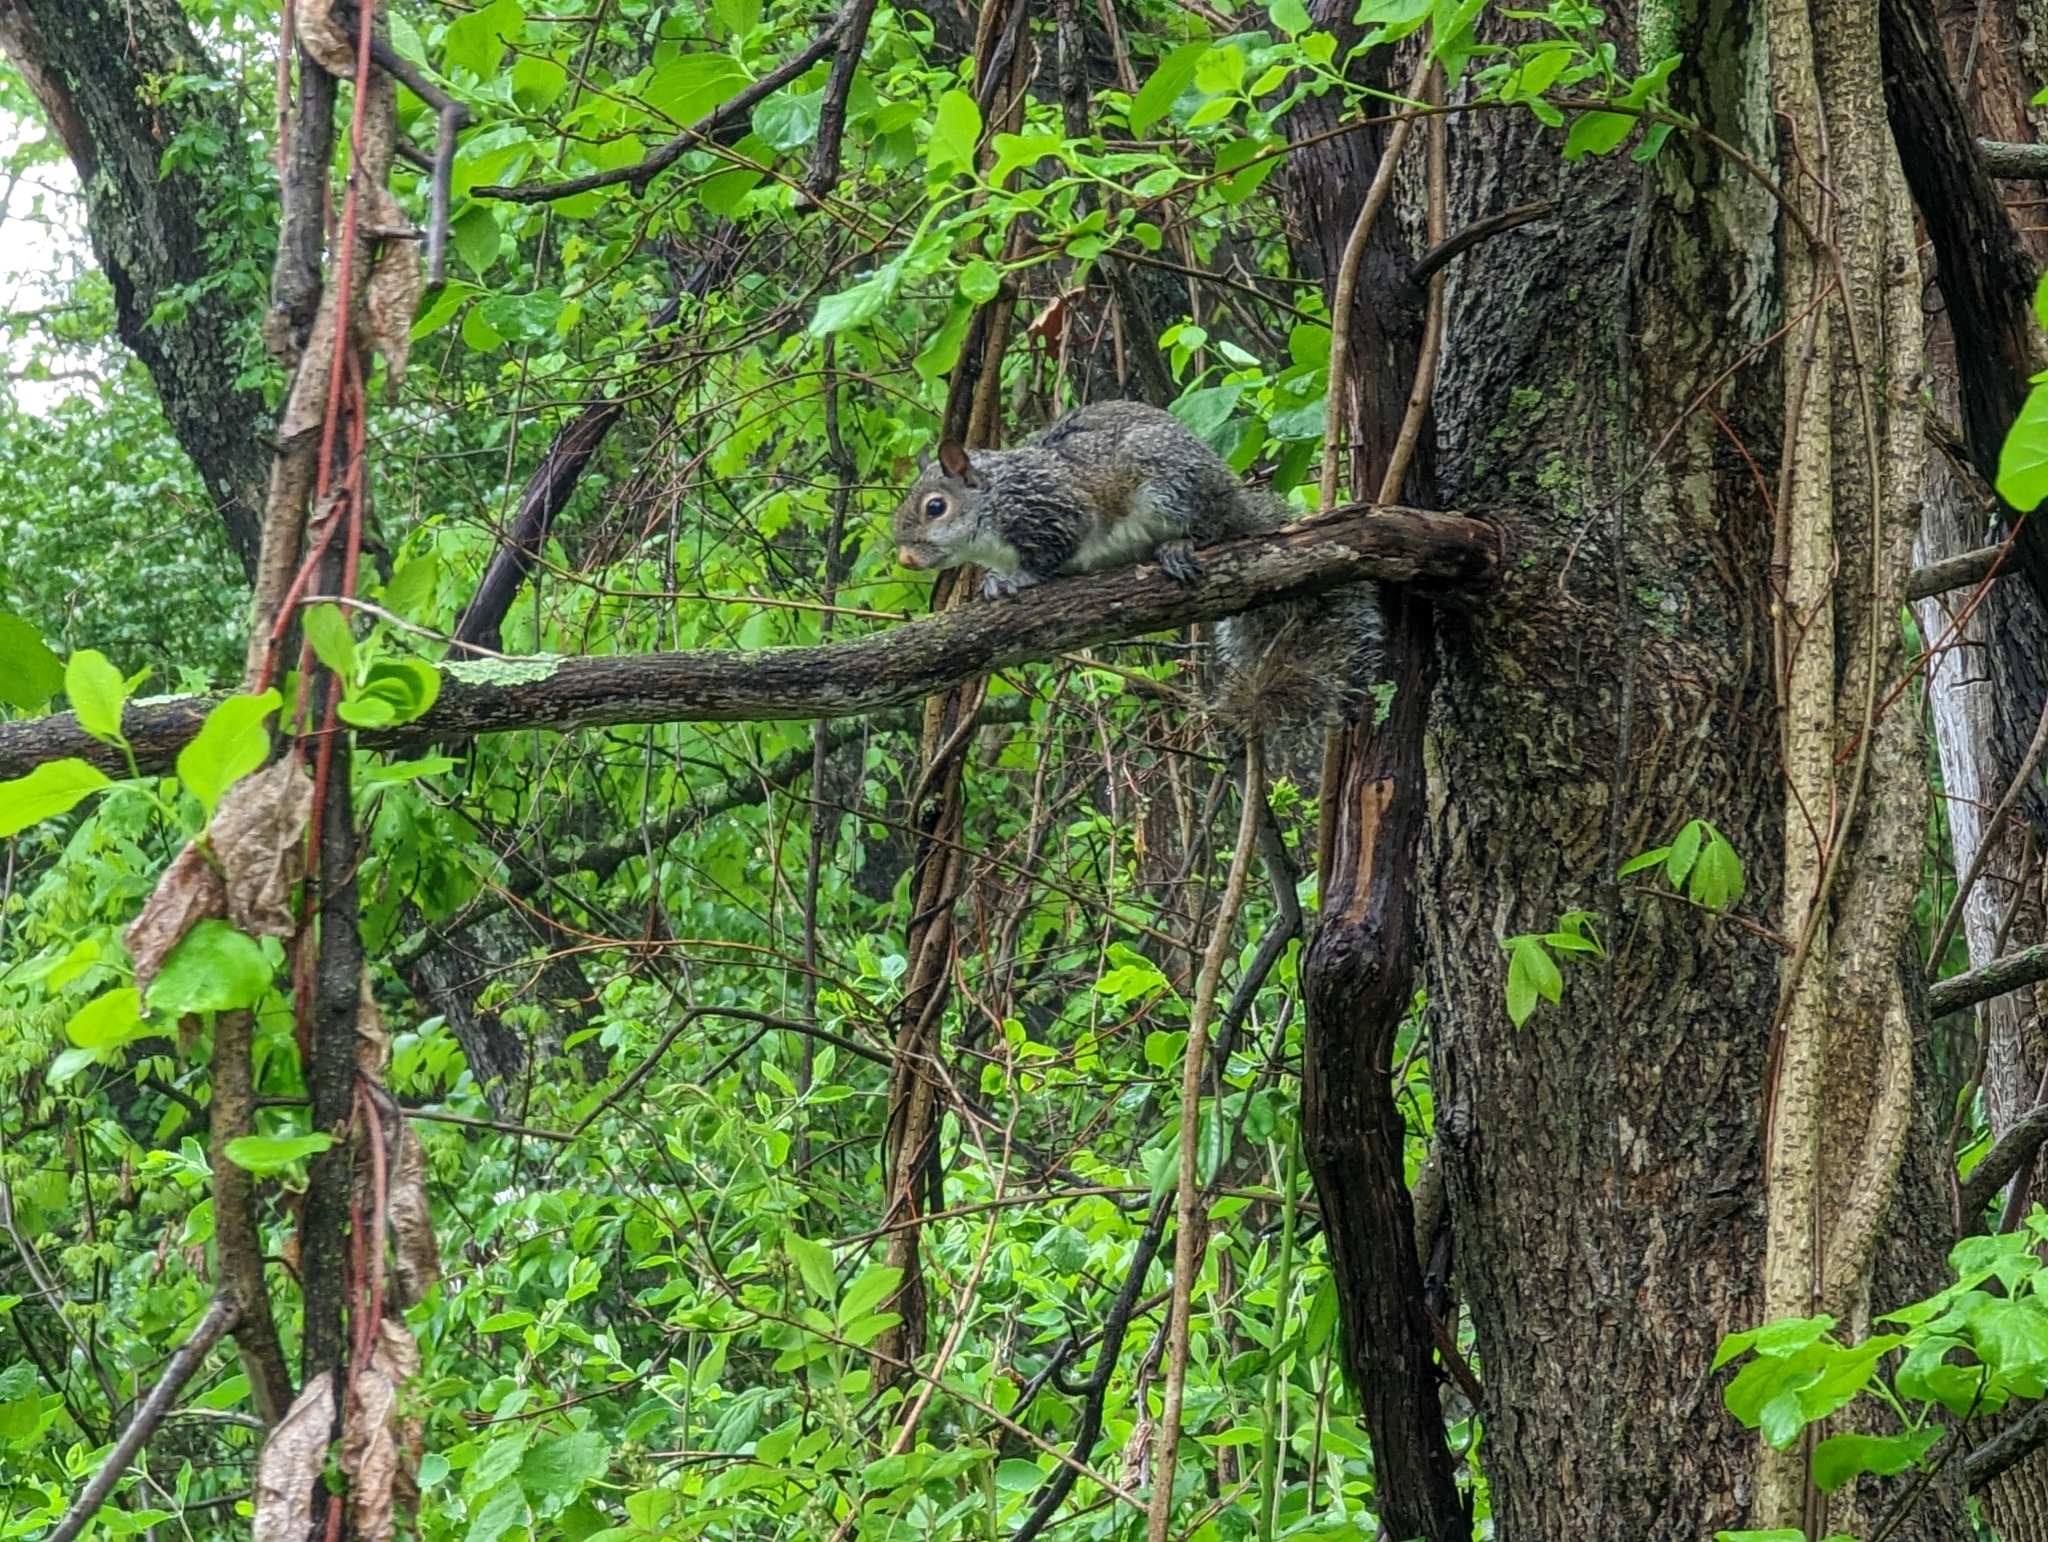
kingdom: Animalia
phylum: Chordata
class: Mammalia
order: Rodentia
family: Sciuridae
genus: Sciurus
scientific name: Sciurus carolinensis
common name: Eastern gray squirrel
